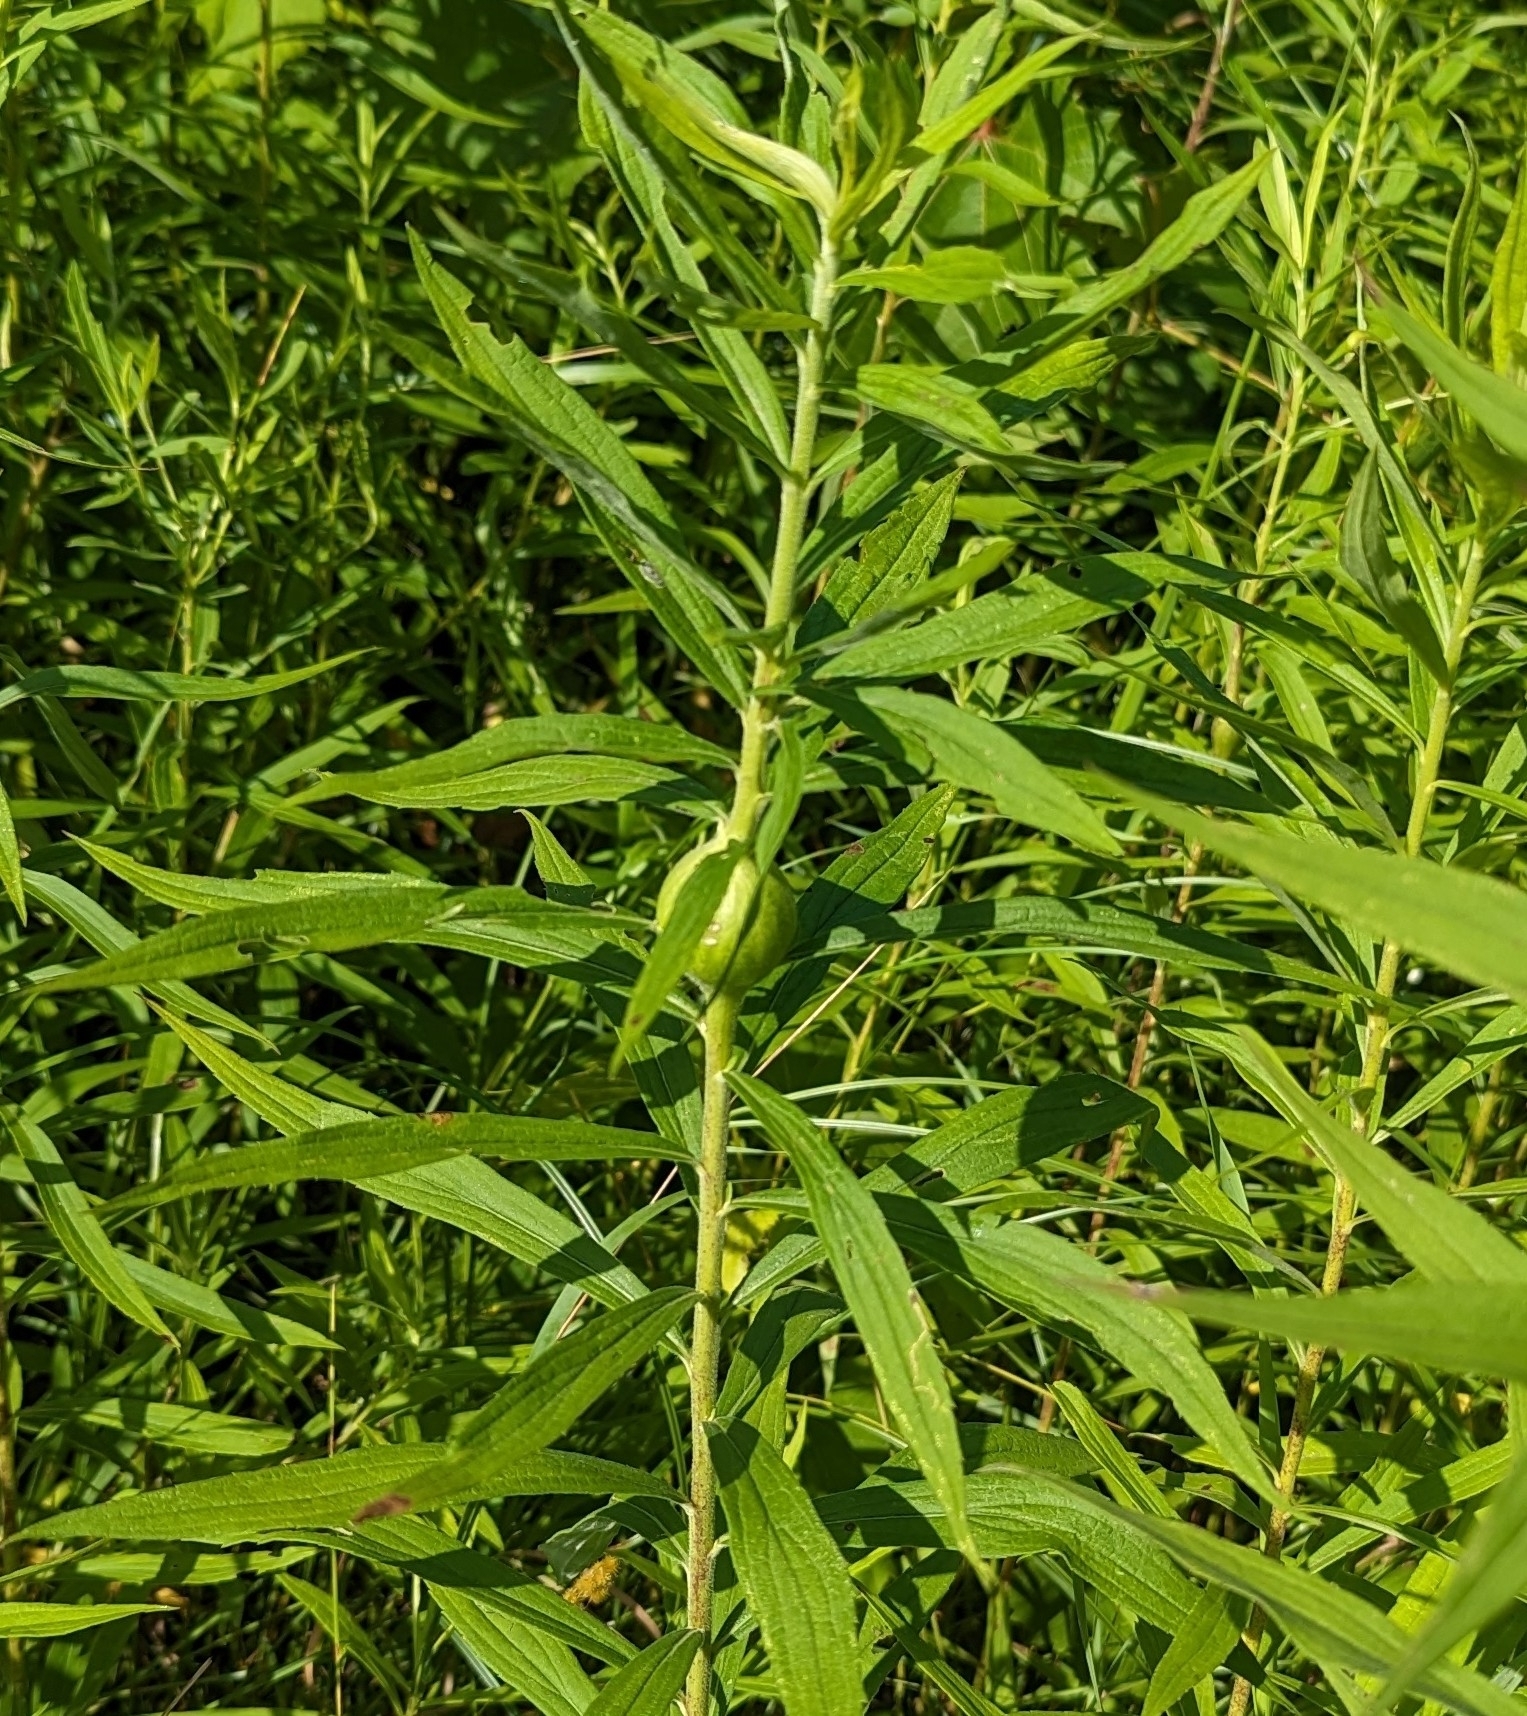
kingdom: Animalia
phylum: Arthropoda
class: Insecta
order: Diptera
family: Tephritidae
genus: Eurosta
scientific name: Eurosta solidaginis
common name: Goldenrod gall fly
